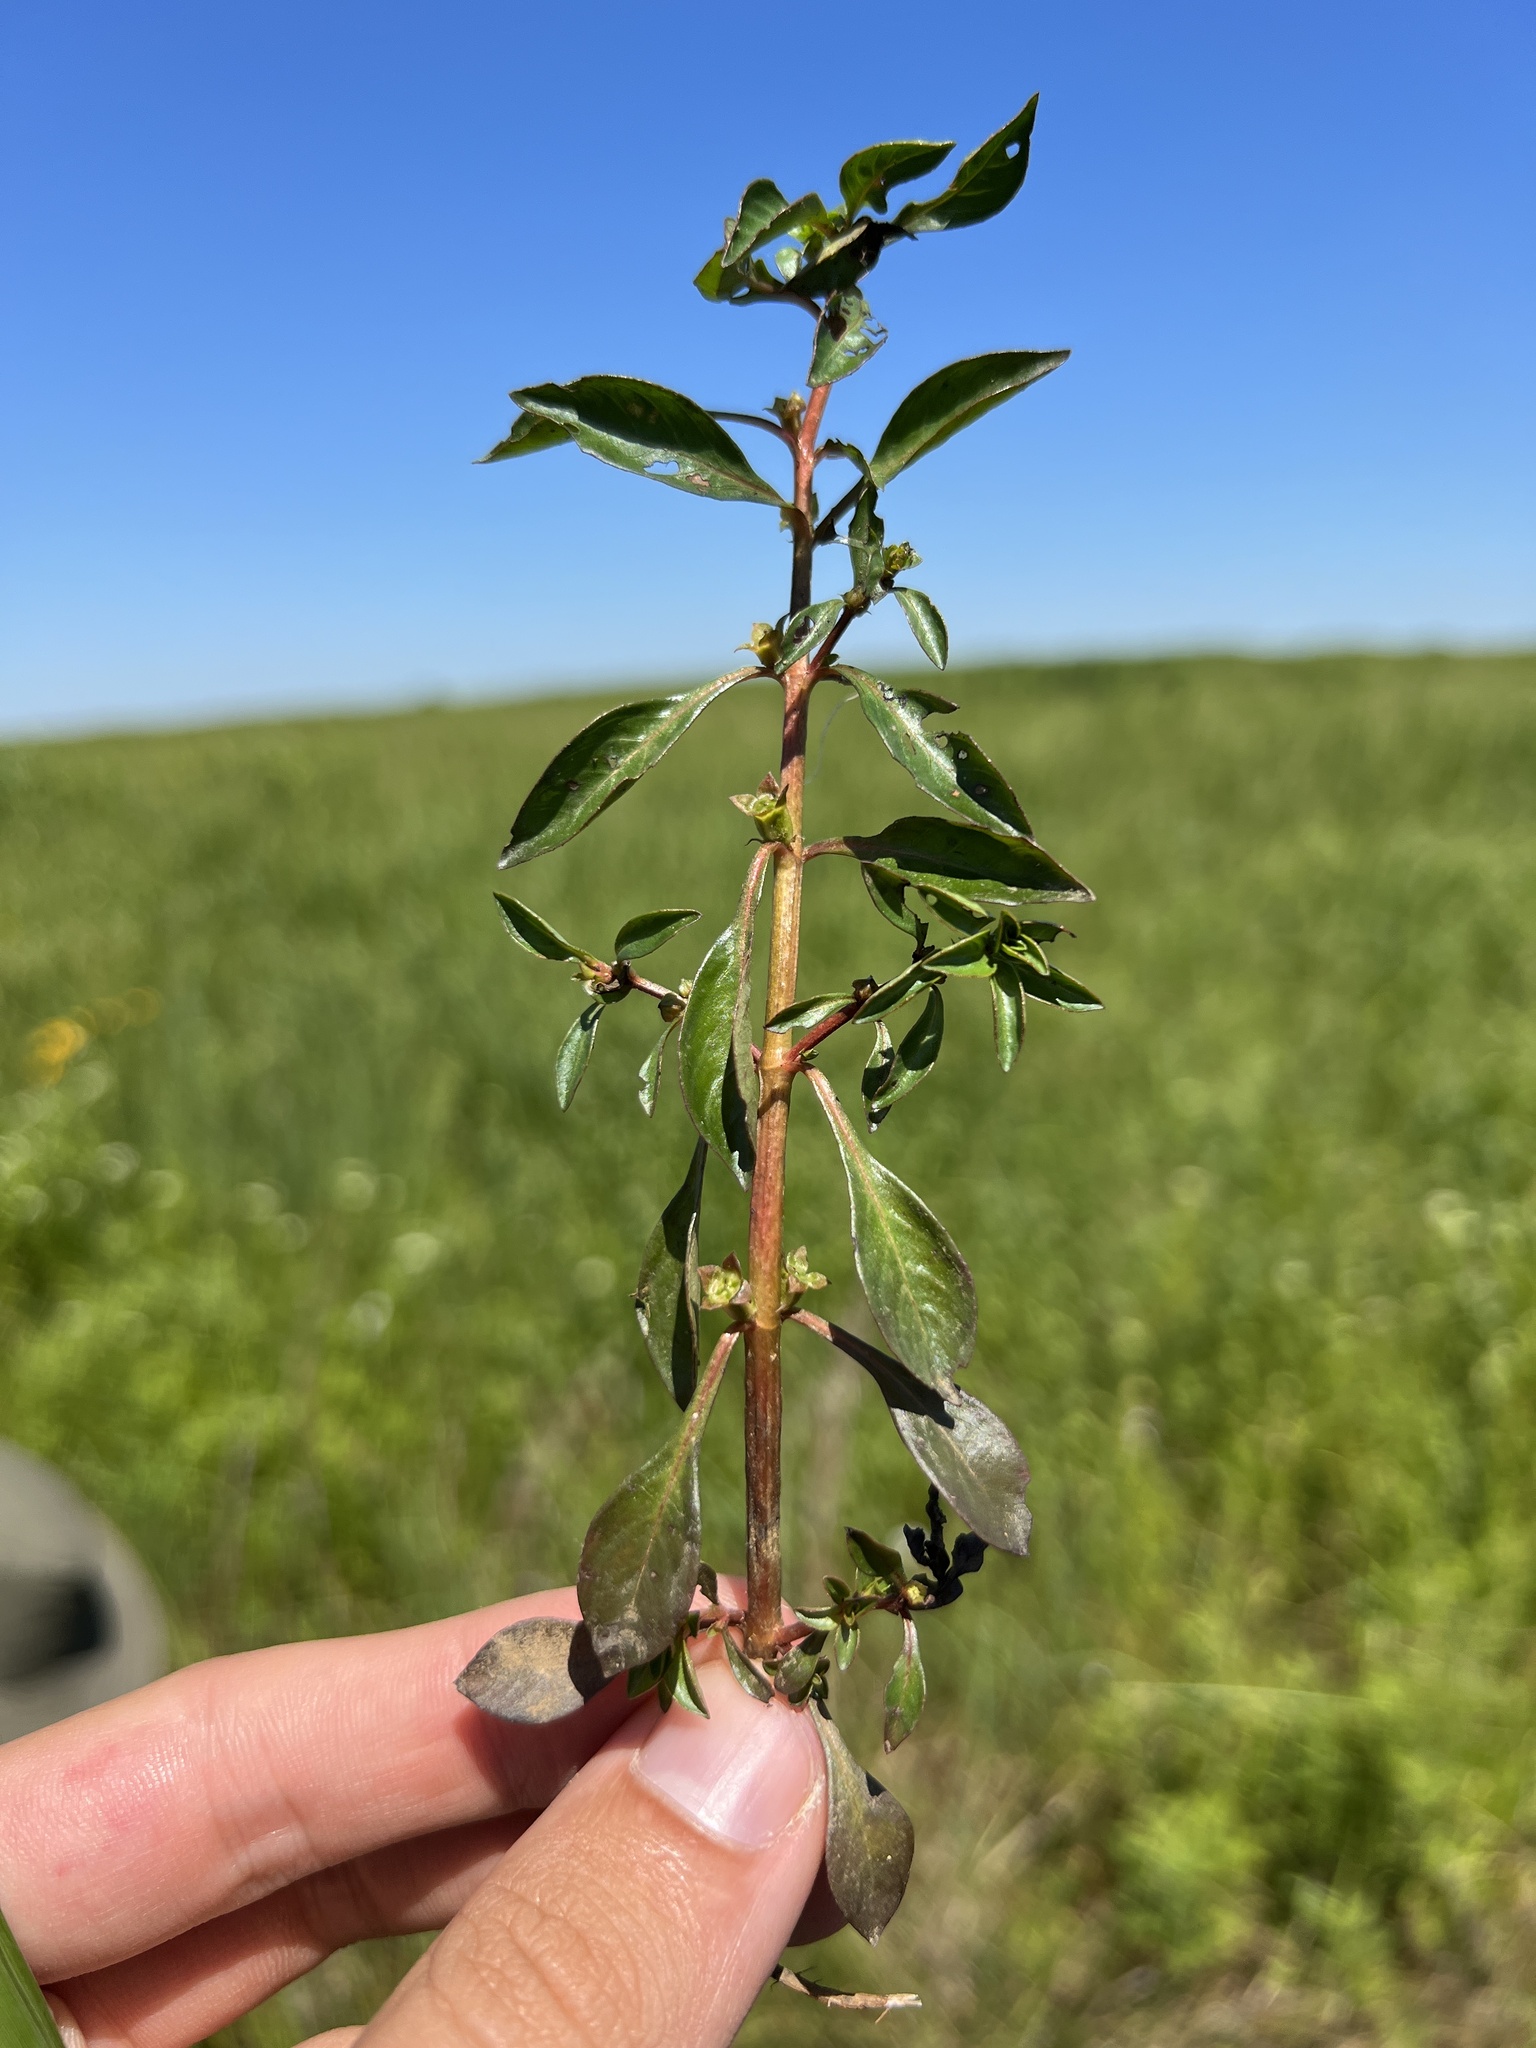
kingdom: Plantae
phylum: Tracheophyta
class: Magnoliopsida
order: Myrtales
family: Onagraceae
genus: Ludwigia
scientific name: Ludwigia palustris
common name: Hampshire-purslane
